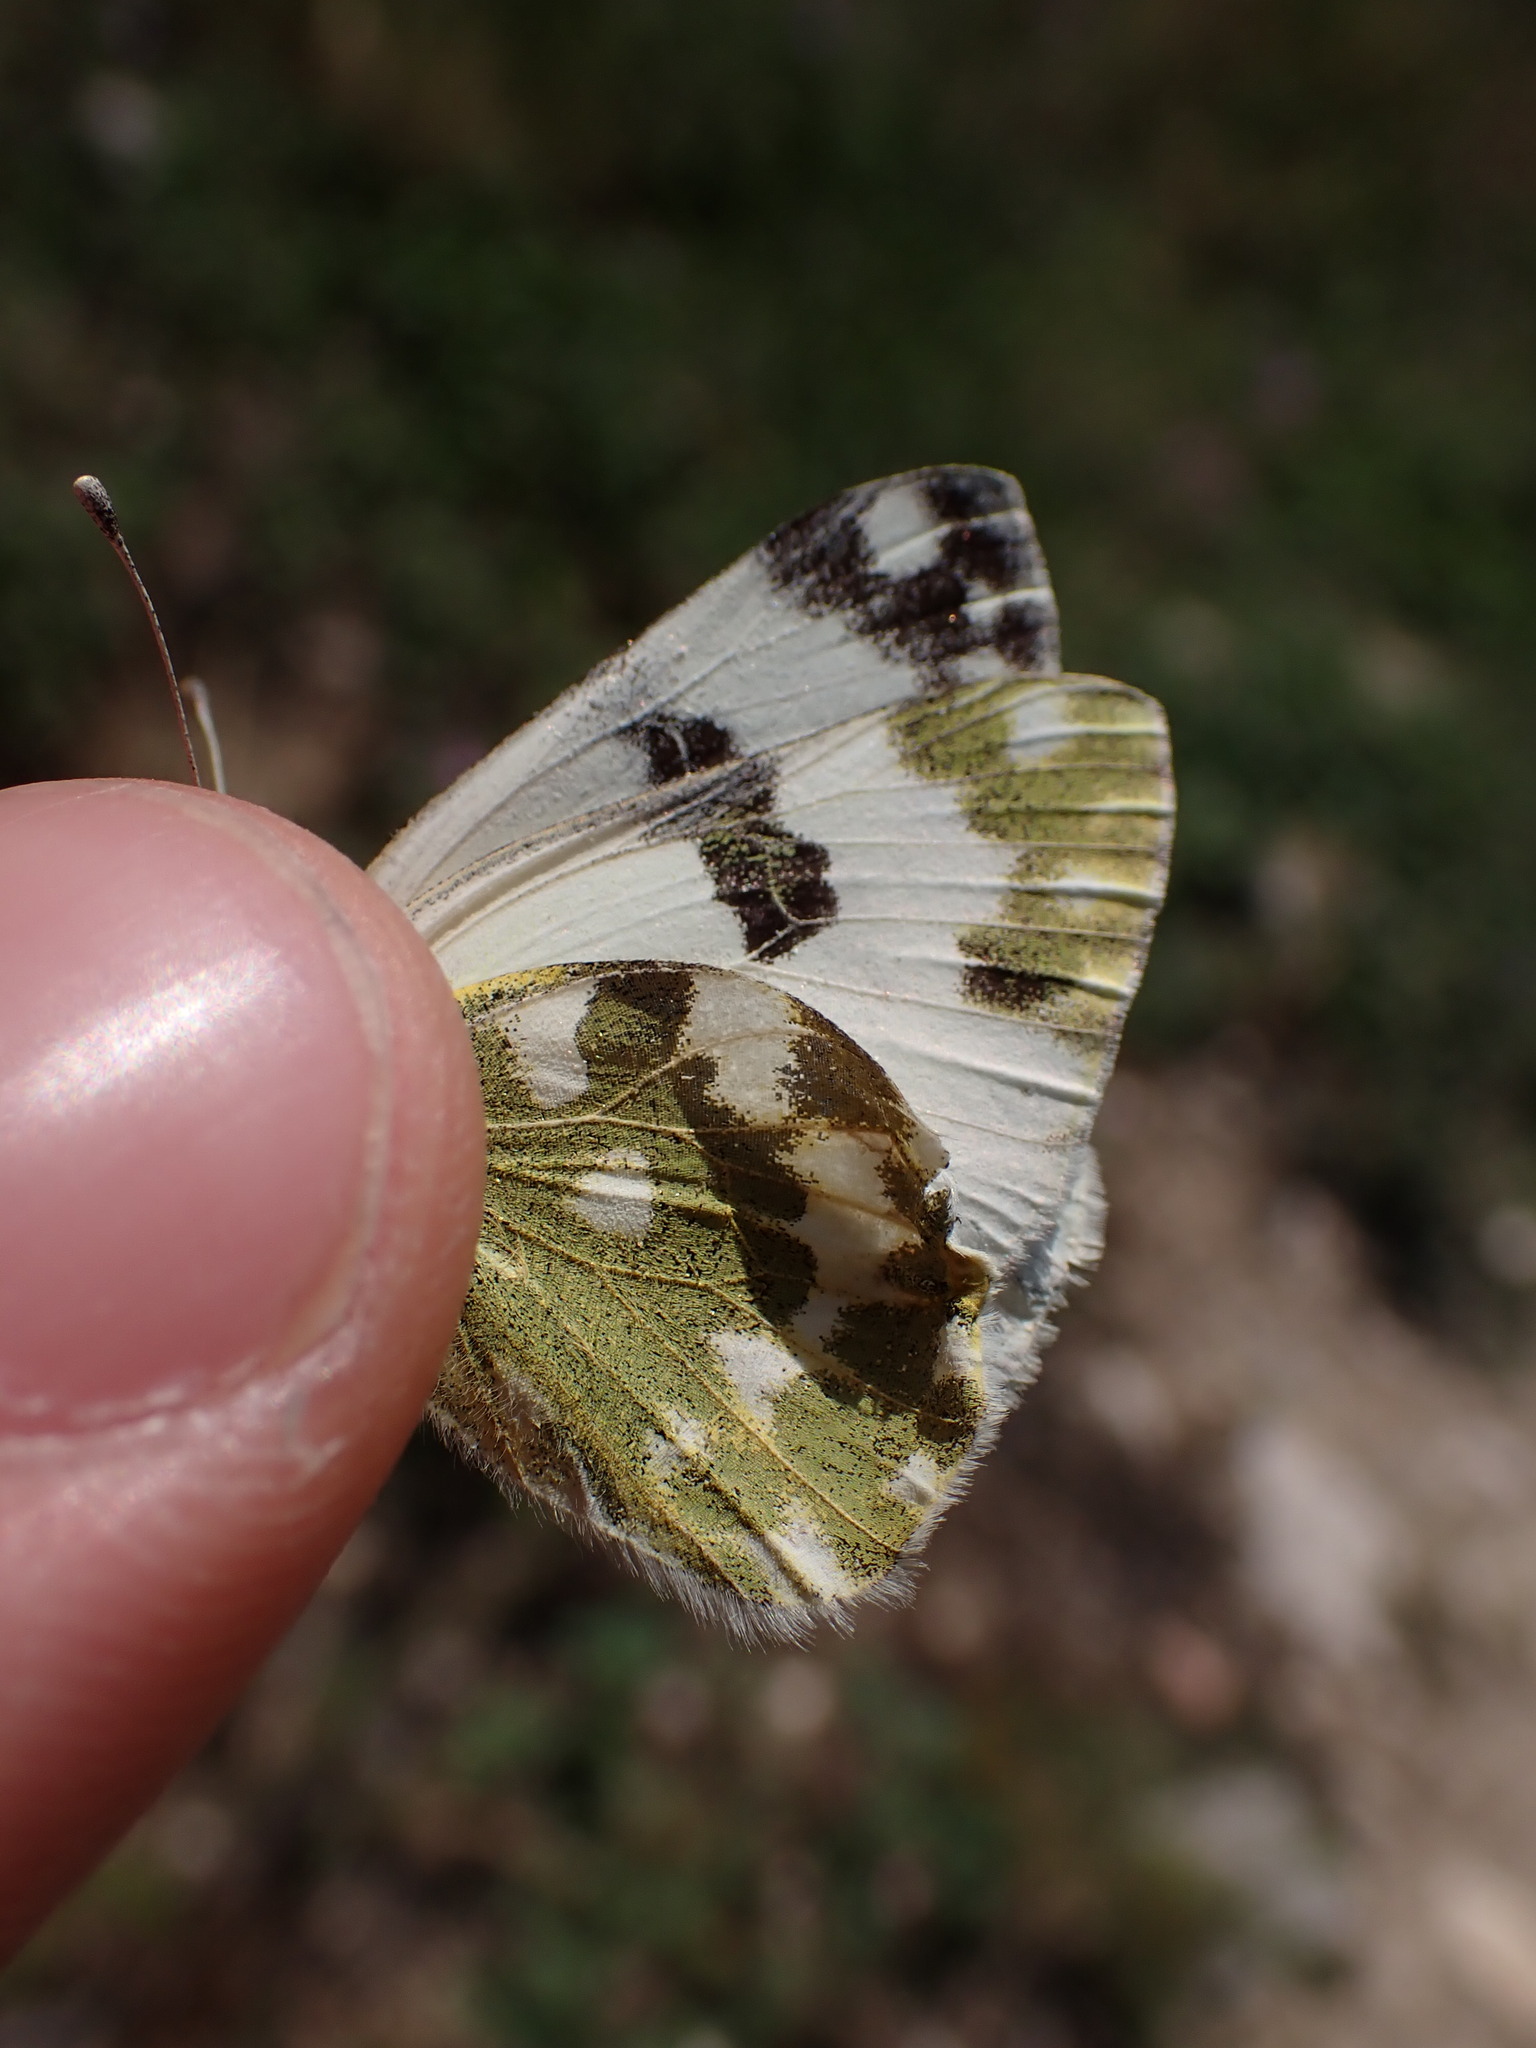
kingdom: Animalia
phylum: Arthropoda
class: Insecta
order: Lepidoptera
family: Pieridae
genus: Pontia
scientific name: Pontia daplidice
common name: Bath white
